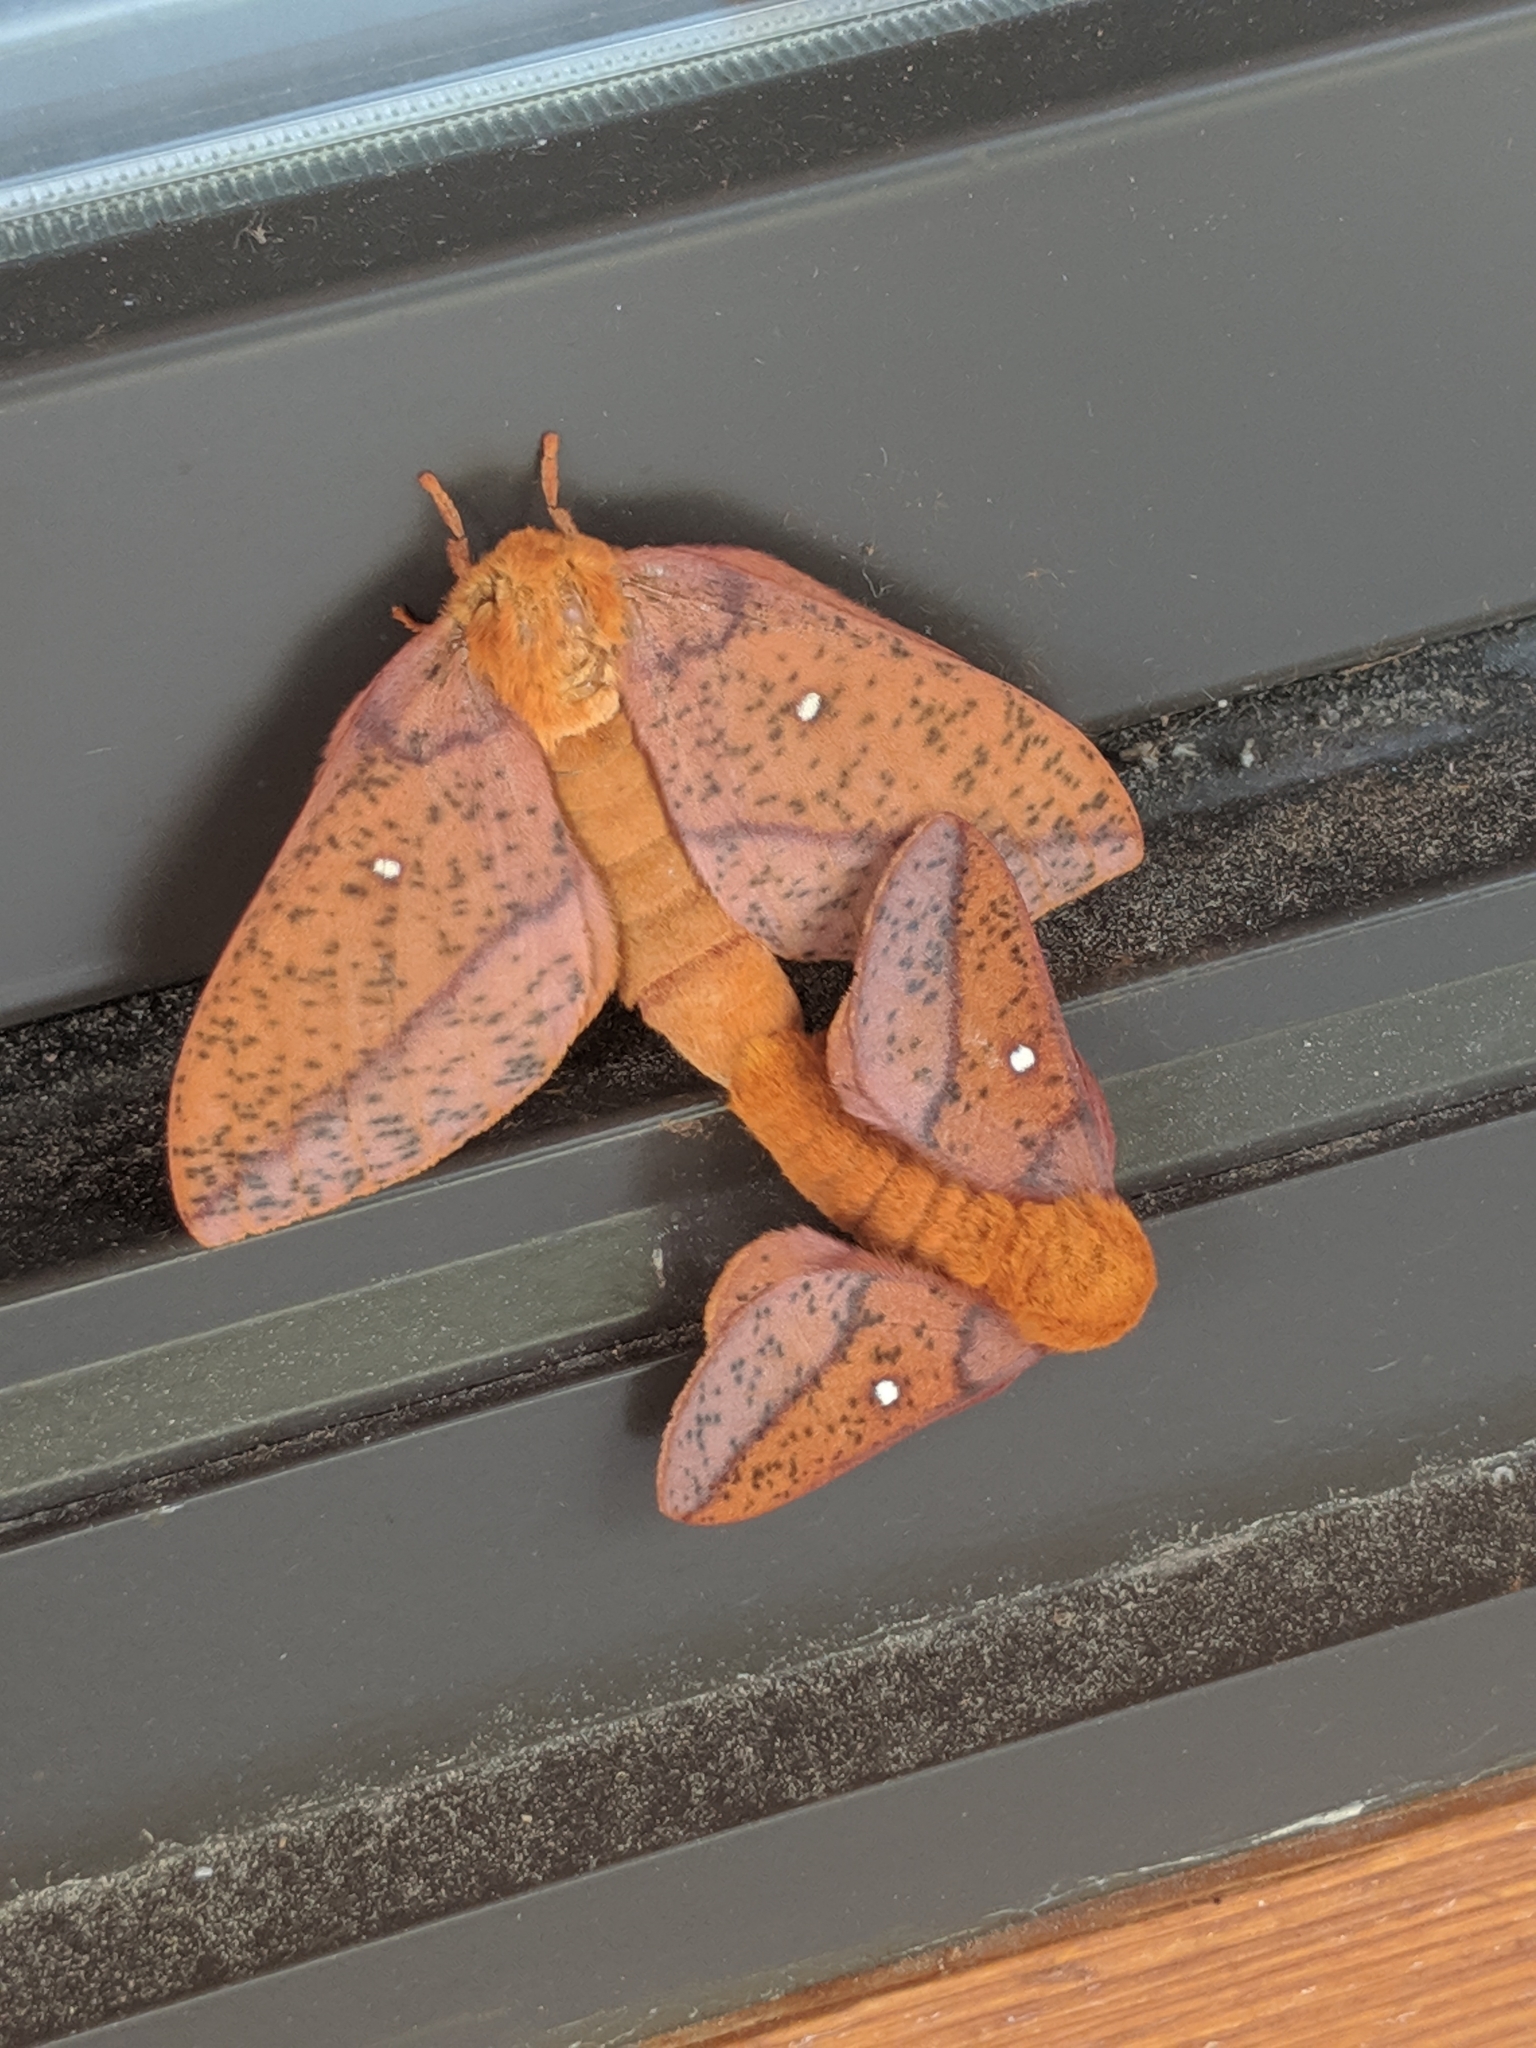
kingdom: Animalia
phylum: Arthropoda
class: Insecta
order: Lepidoptera
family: Saturniidae
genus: Anisota
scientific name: Anisota stigma
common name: Spiny oakworm moth
